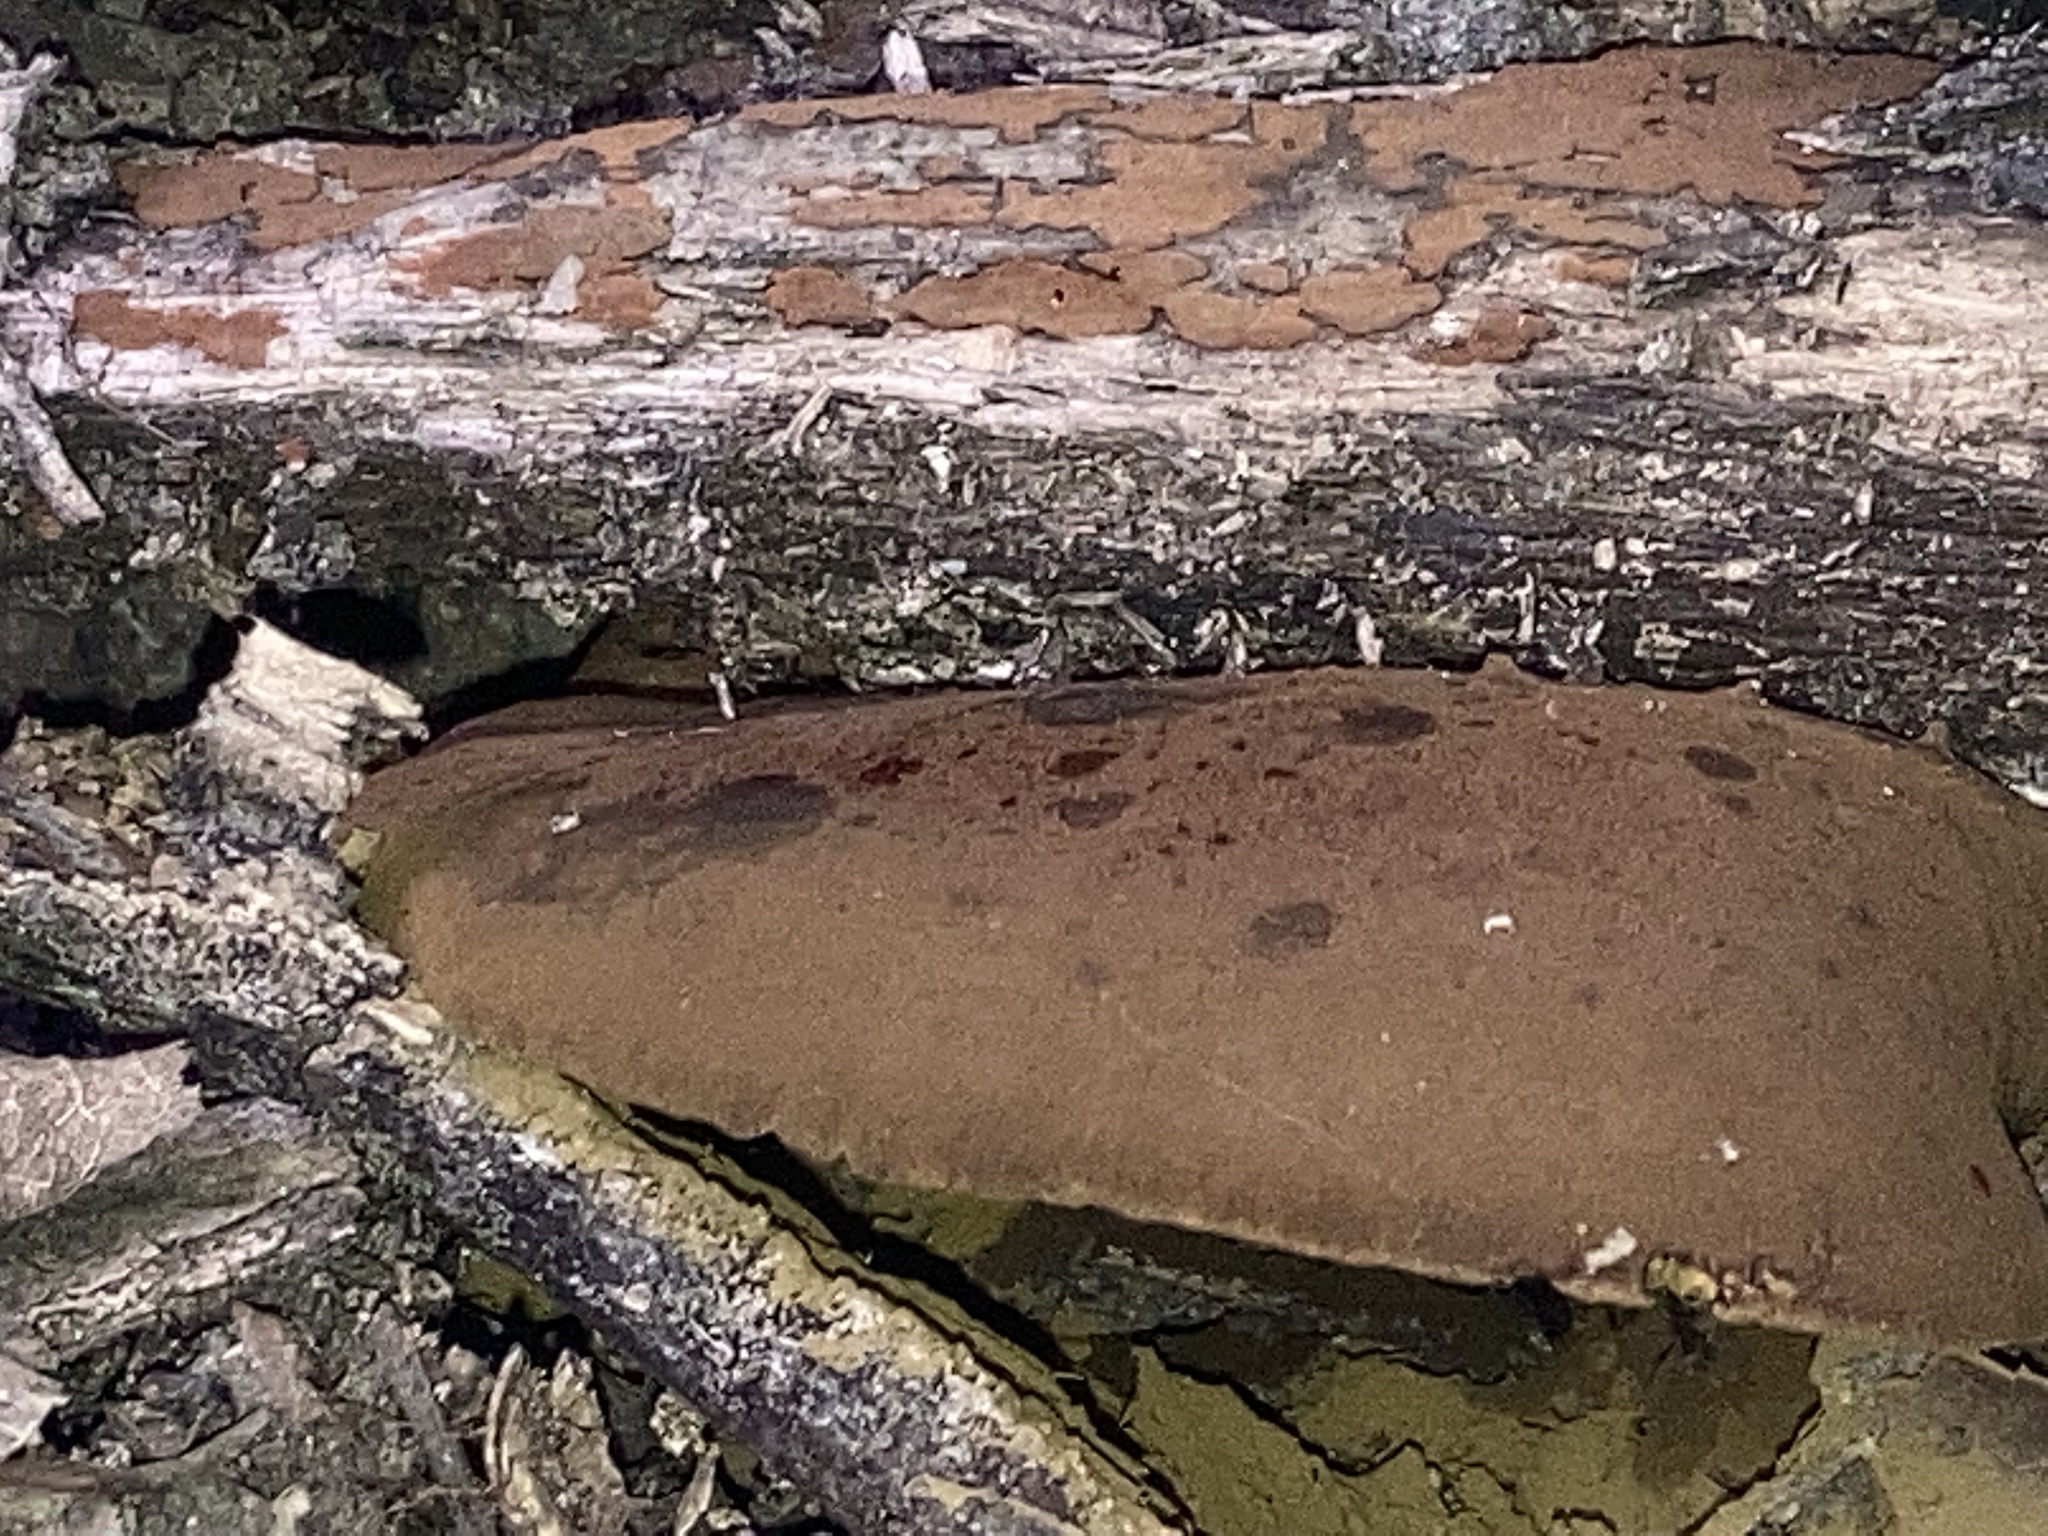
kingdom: Fungi
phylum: Basidiomycota
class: Agaricomycetes
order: Boletales
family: Boletinellaceae
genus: Boletinellus
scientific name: Boletinellus merulioides
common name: Ash tree bolete
